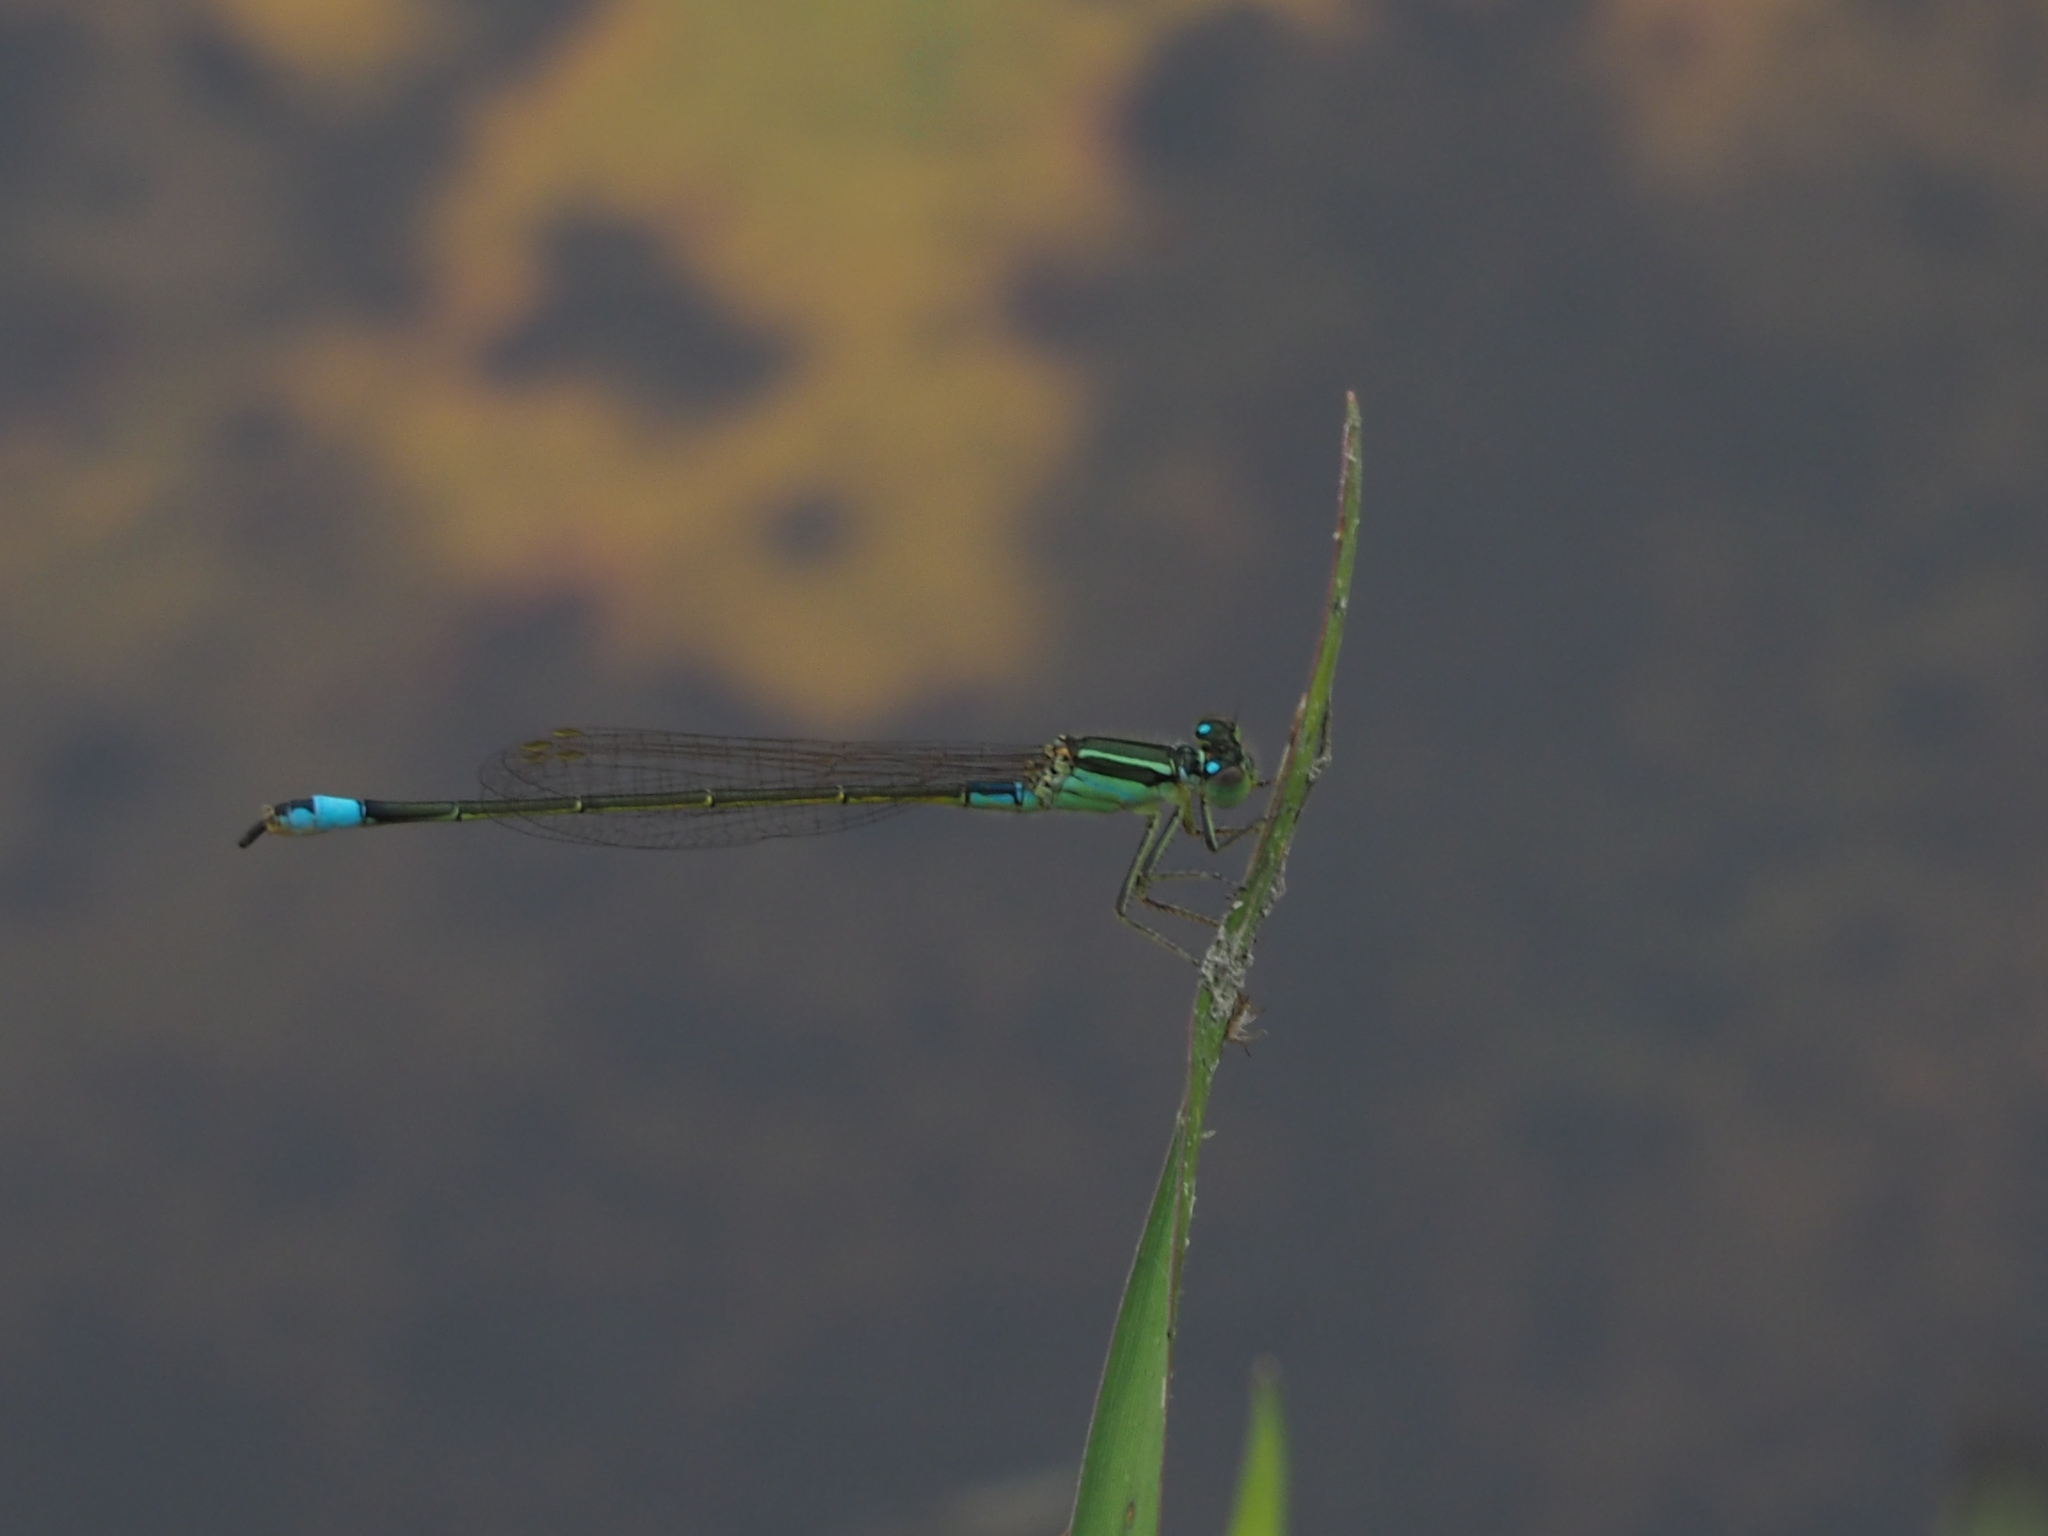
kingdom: Animalia
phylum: Arthropoda
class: Insecta
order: Odonata
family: Coenagrionidae
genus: Ischnura
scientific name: Ischnura senegalensis
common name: Tropical bluetail
